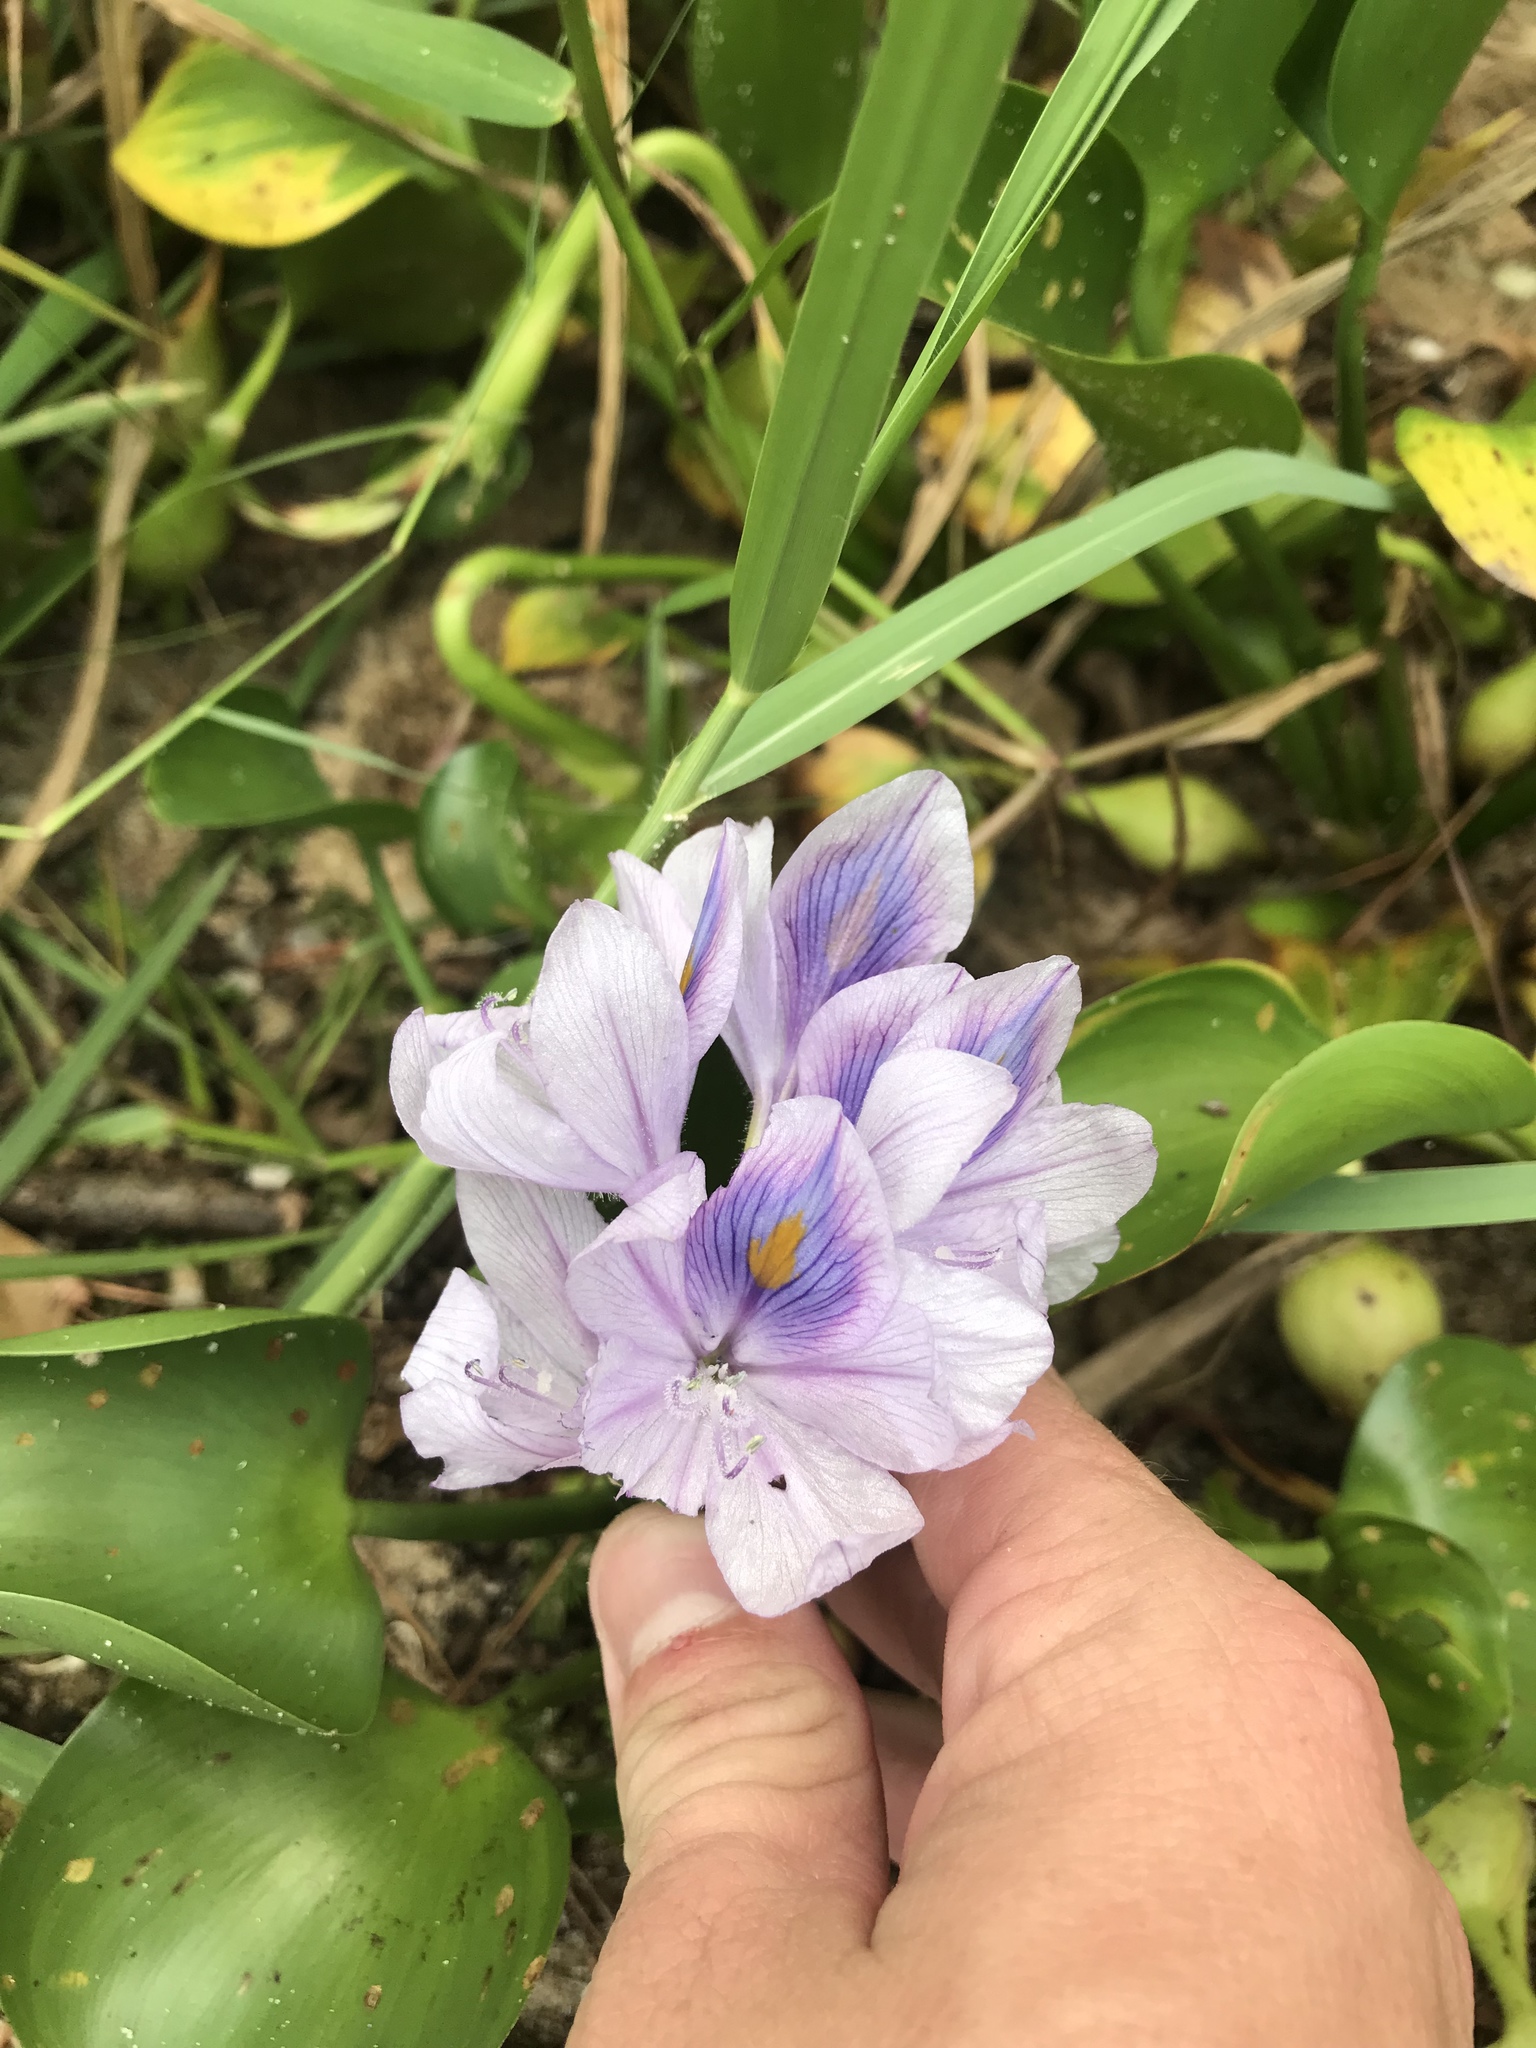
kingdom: Plantae
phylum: Tracheophyta
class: Liliopsida
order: Commelinales
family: Pontederiaceae
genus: Pontederia
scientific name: Pontederia crassipes
